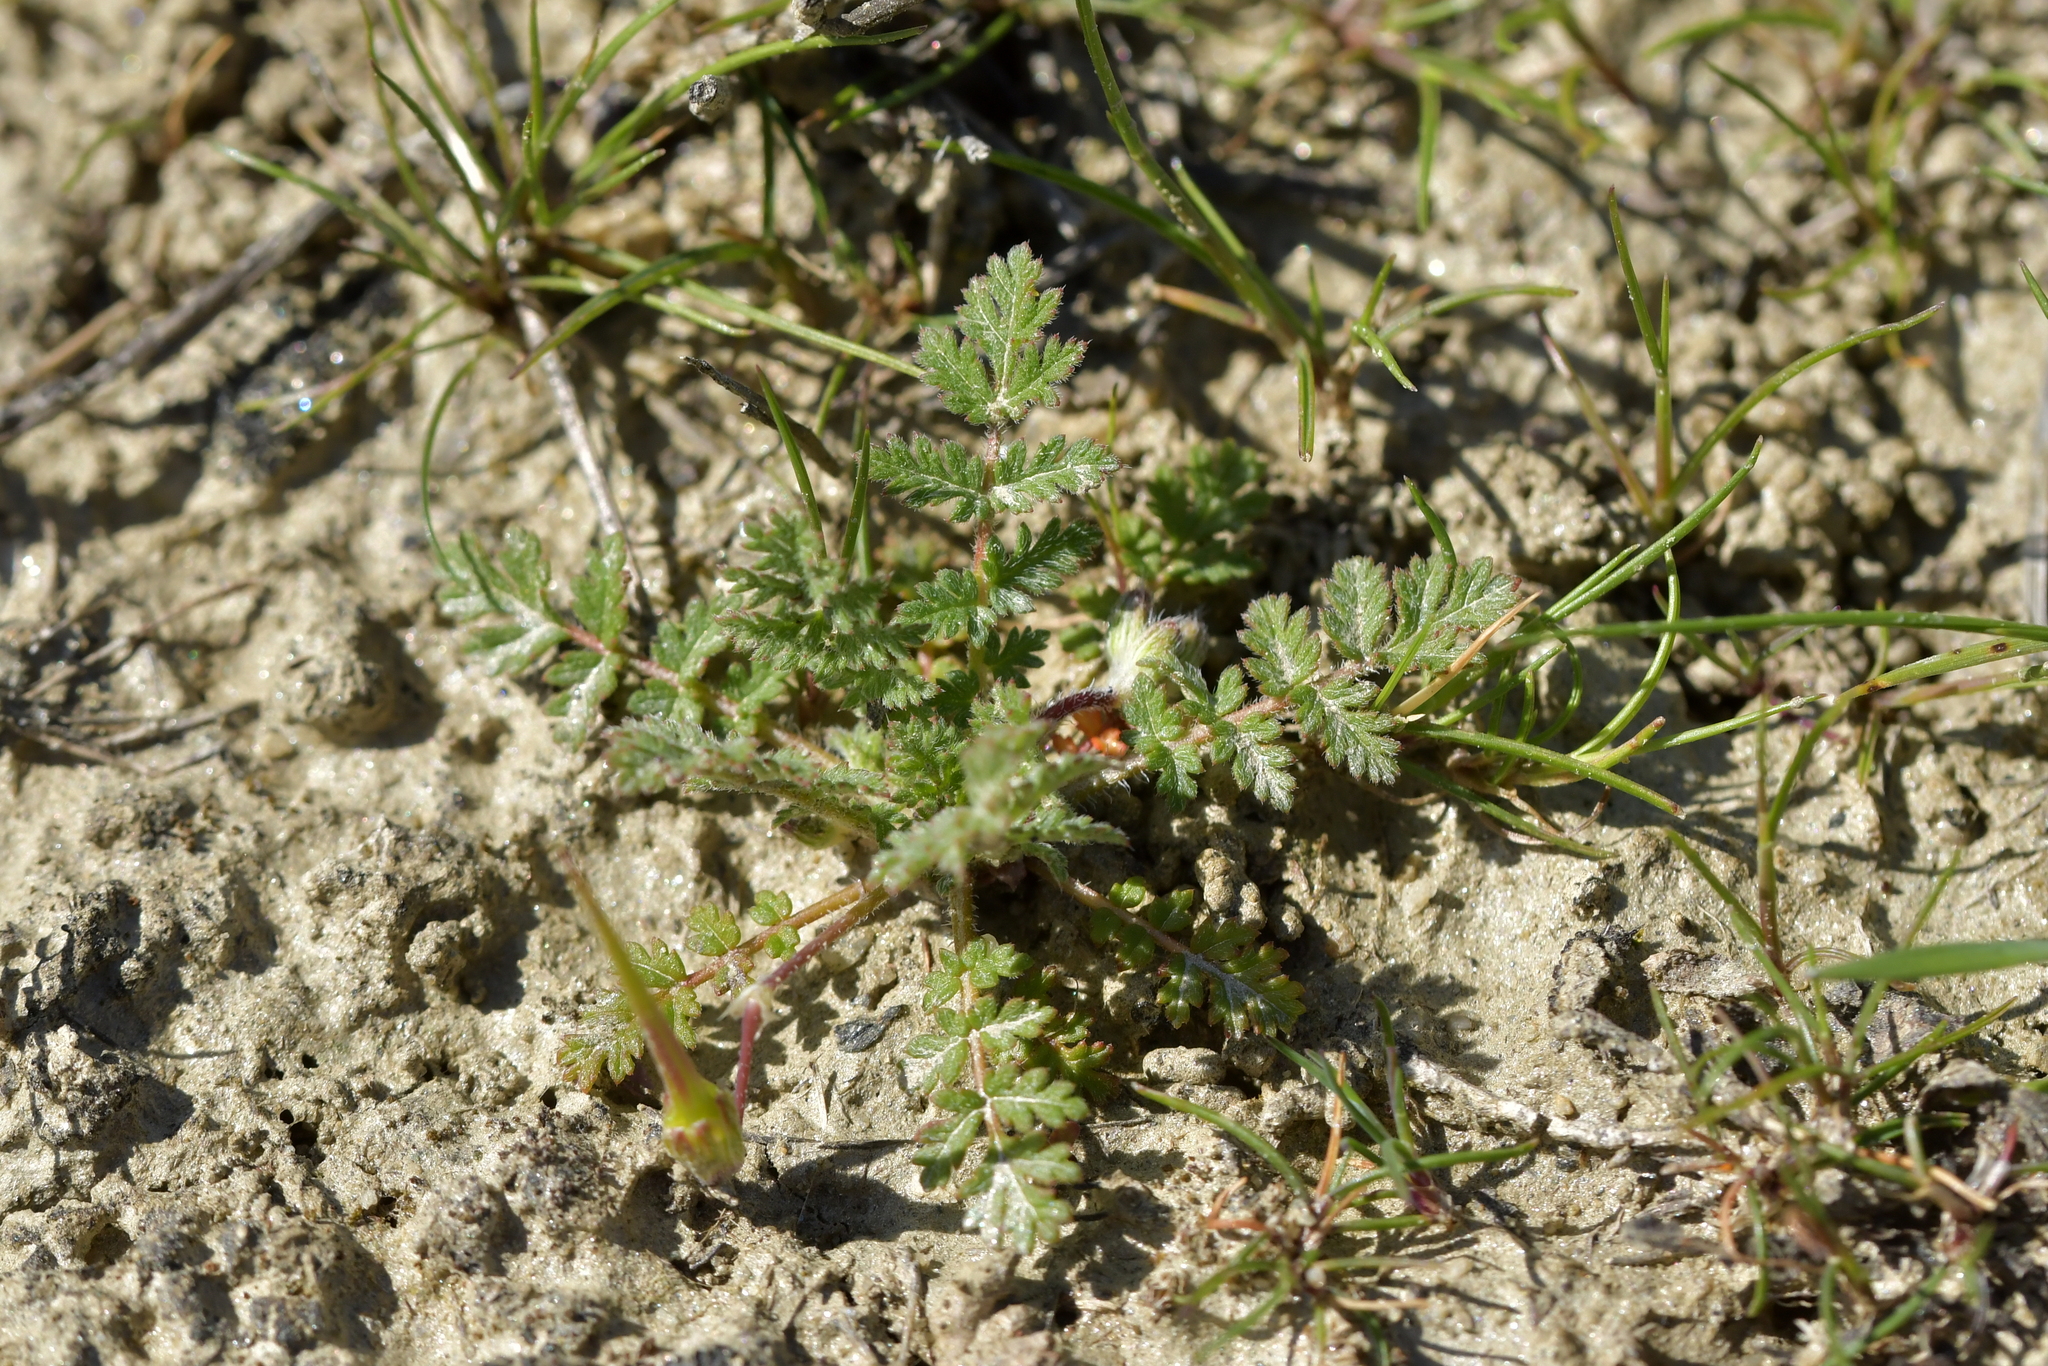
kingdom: Plantae
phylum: Tracheophyta
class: Magnoliopsida
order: Geraniales
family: Geraniaceae
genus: Erodium
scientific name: Erodium cicutarium
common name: Common stork's-bill
